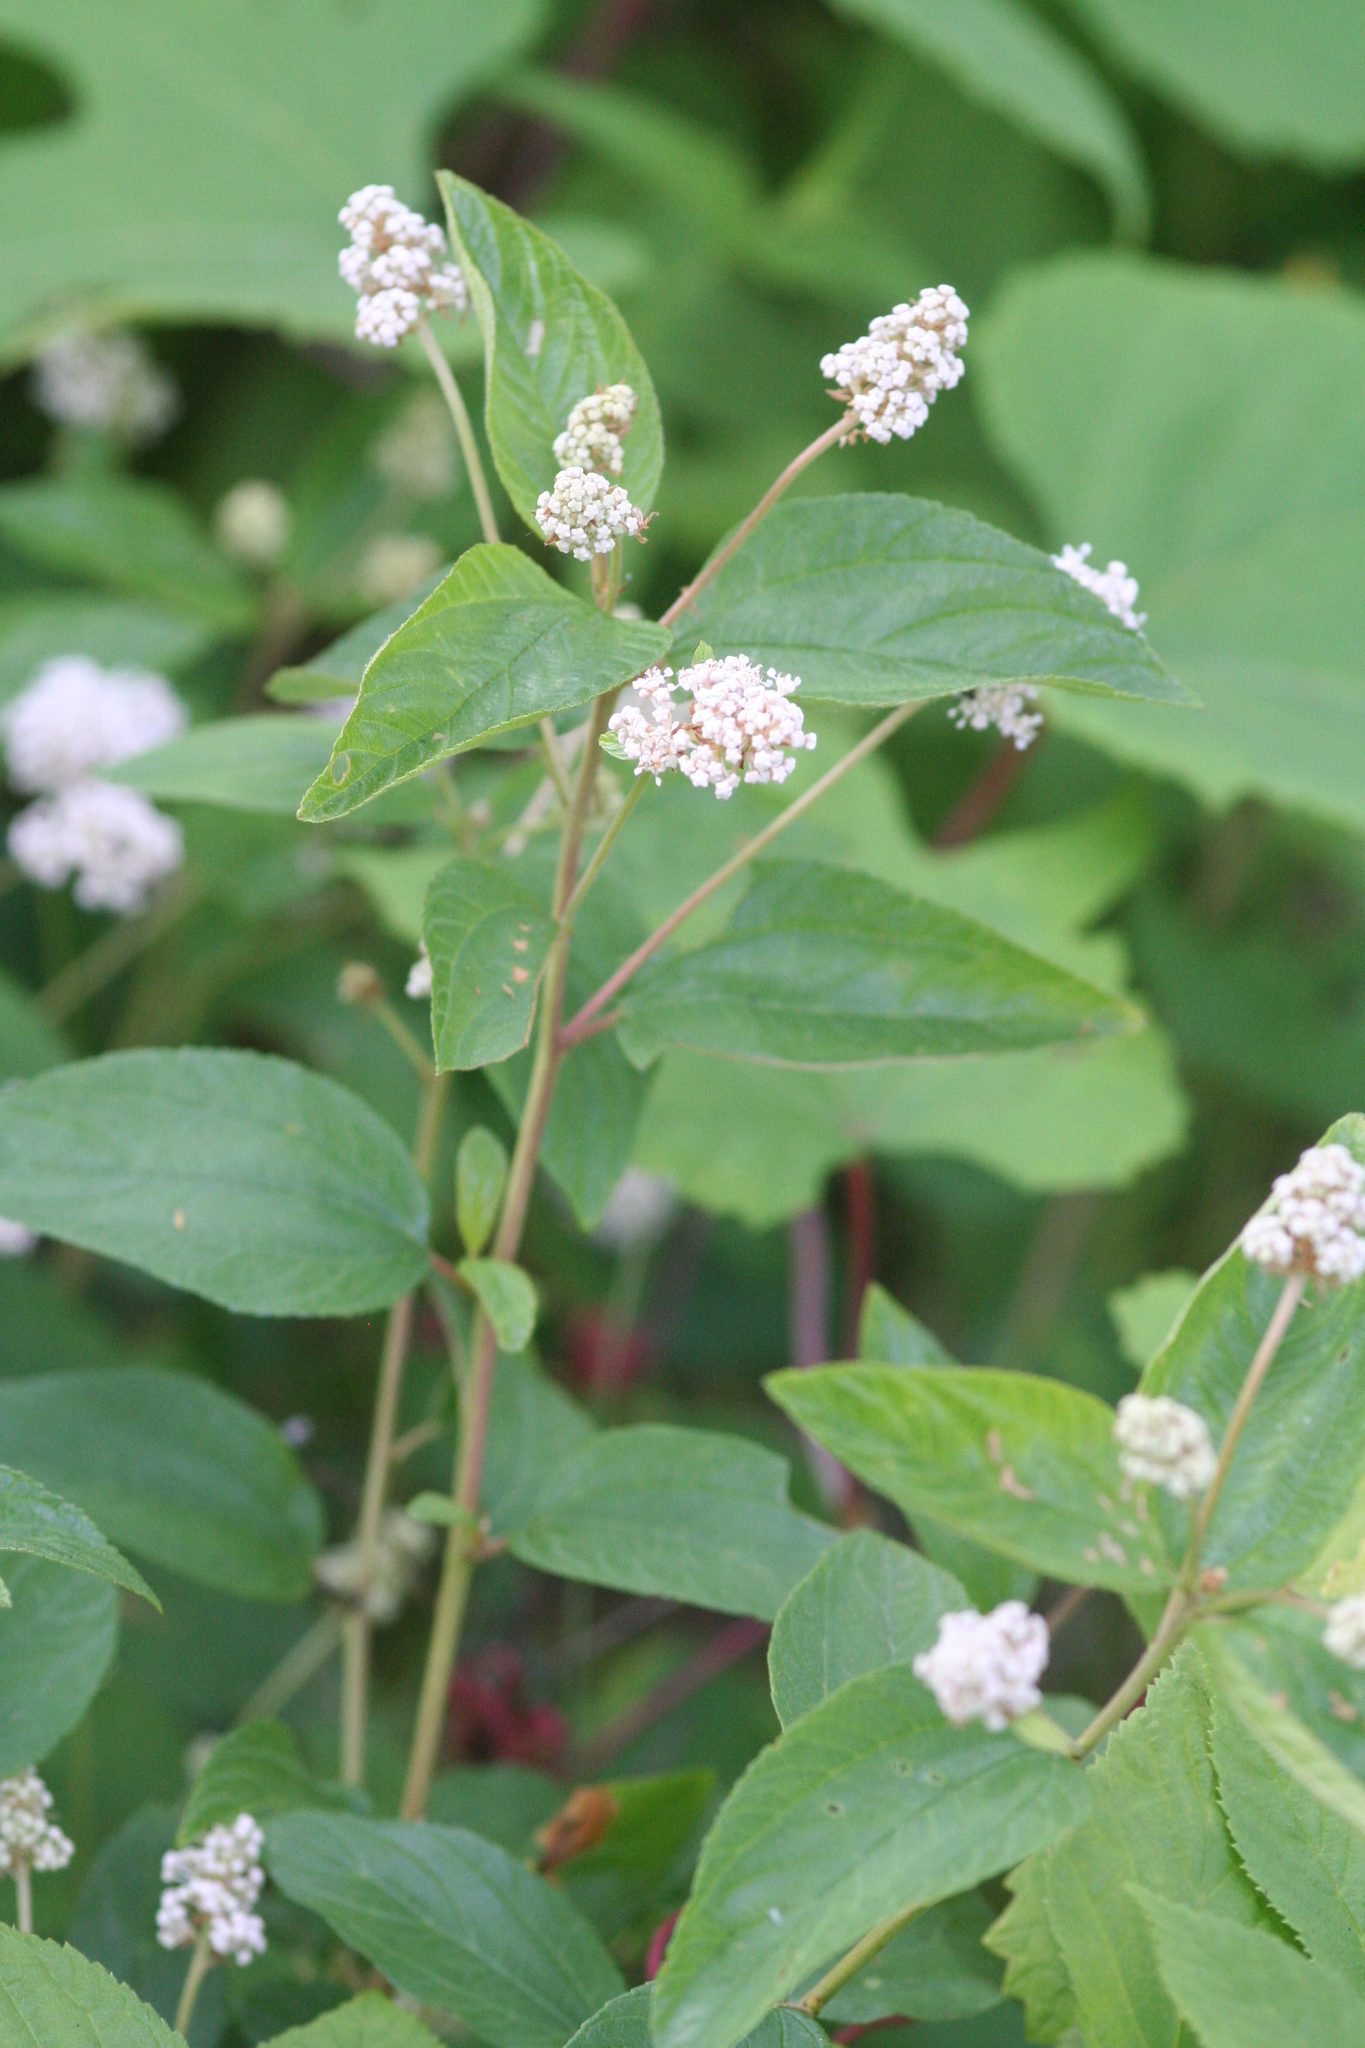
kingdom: Plantae
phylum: Tracheophyta
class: Magnoliopsida
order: Rosales
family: Rhamnaceae
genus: Ceanothus
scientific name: Ceanothus americanus
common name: Redroot
